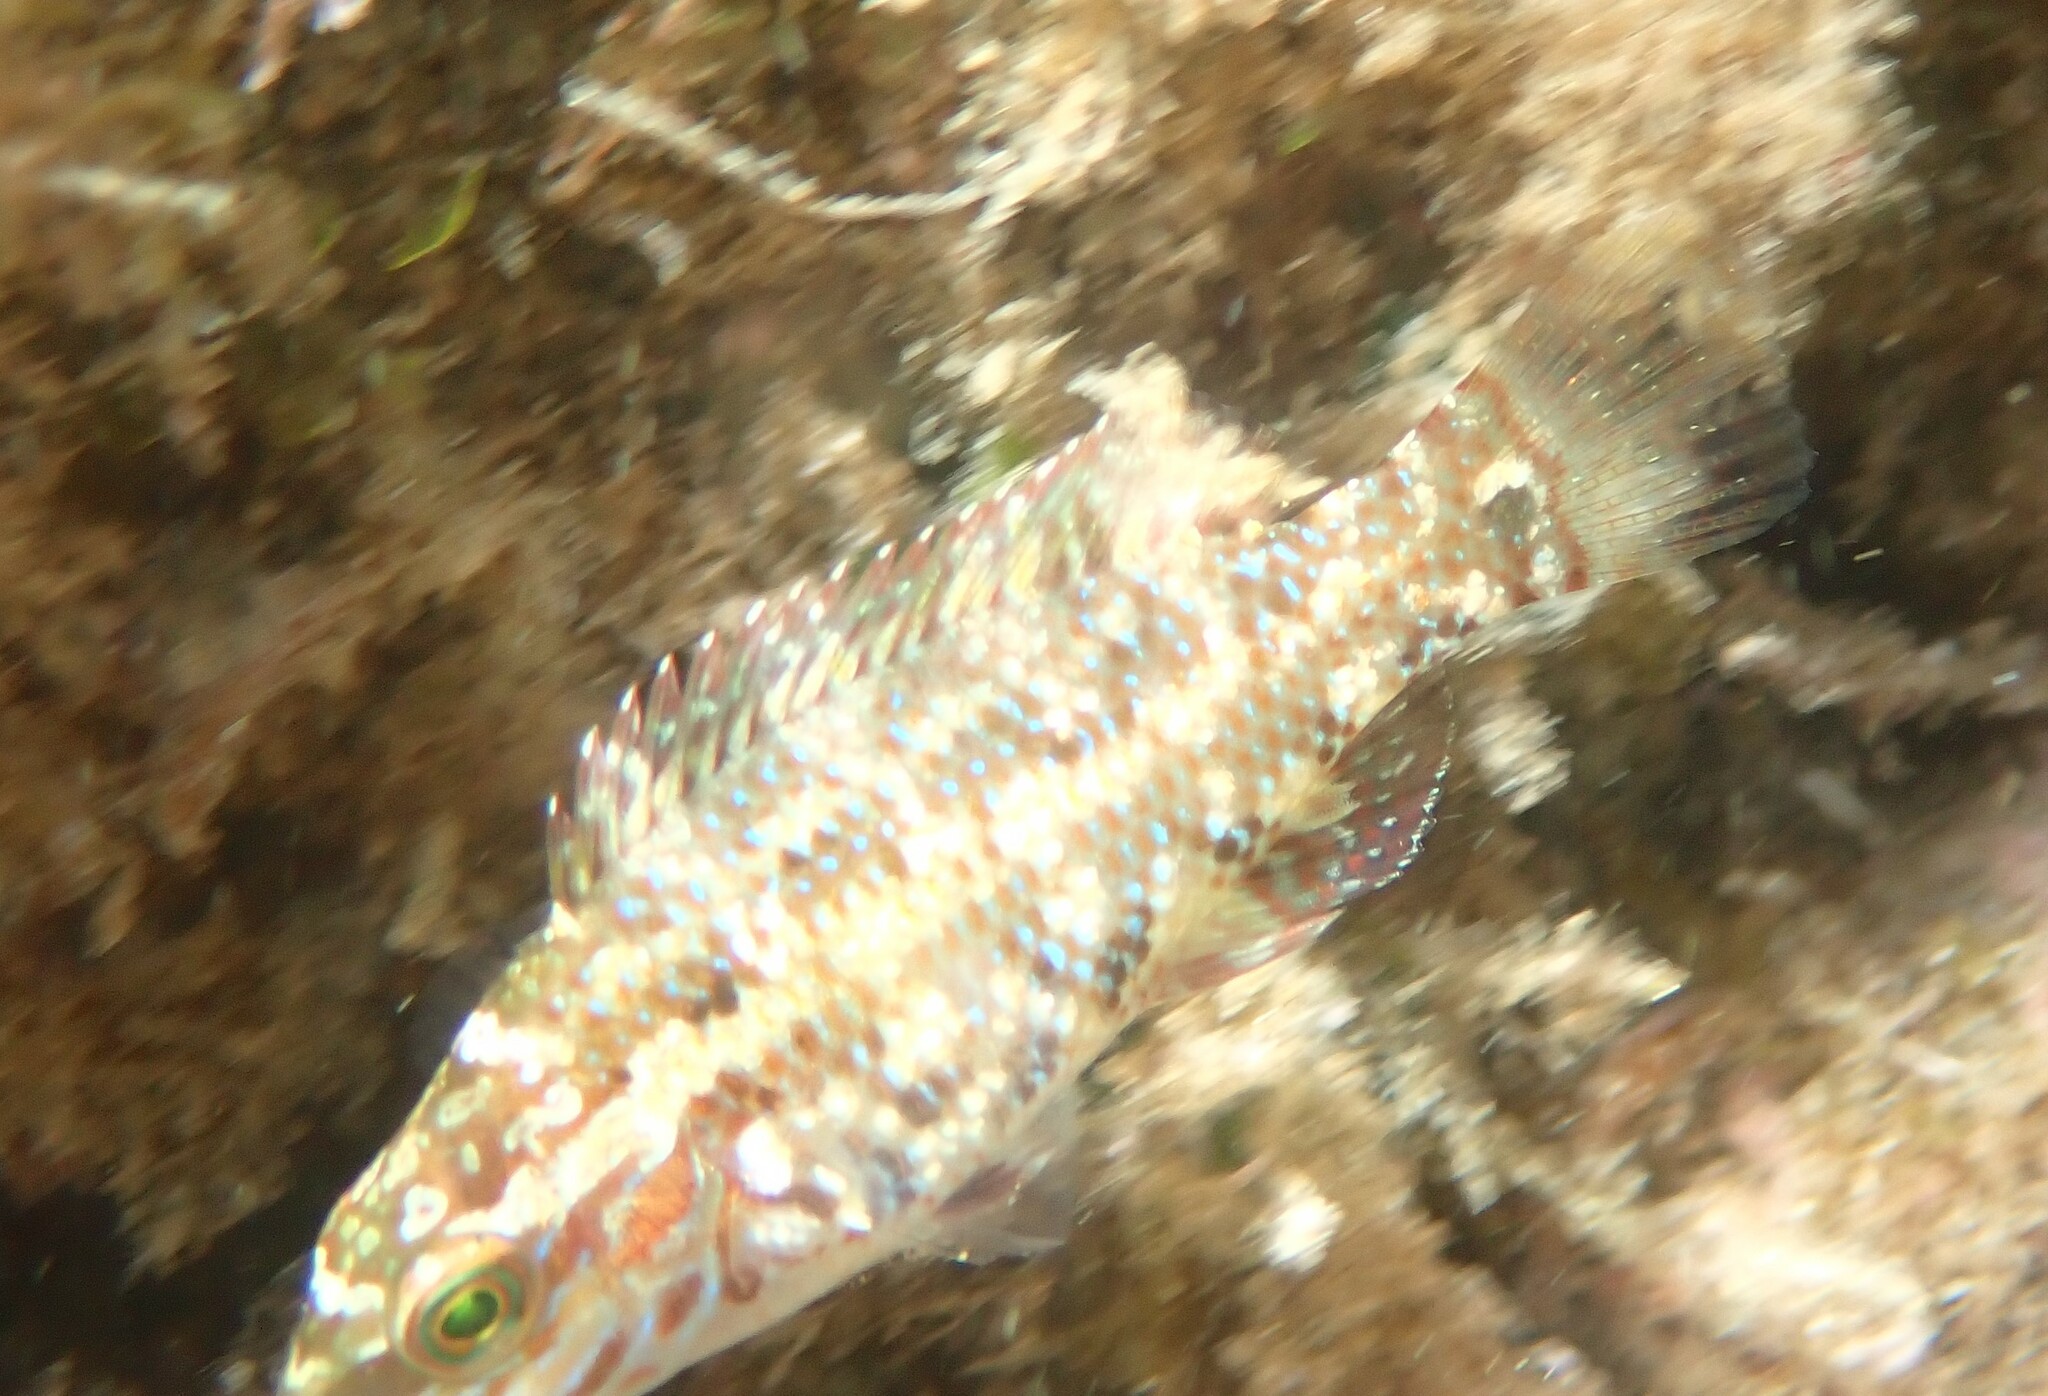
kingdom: Animalia
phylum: Chordata
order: Perciformes
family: Labridae
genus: Symphodus
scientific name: Symphodus roissali
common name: Five-spotted wrasse
